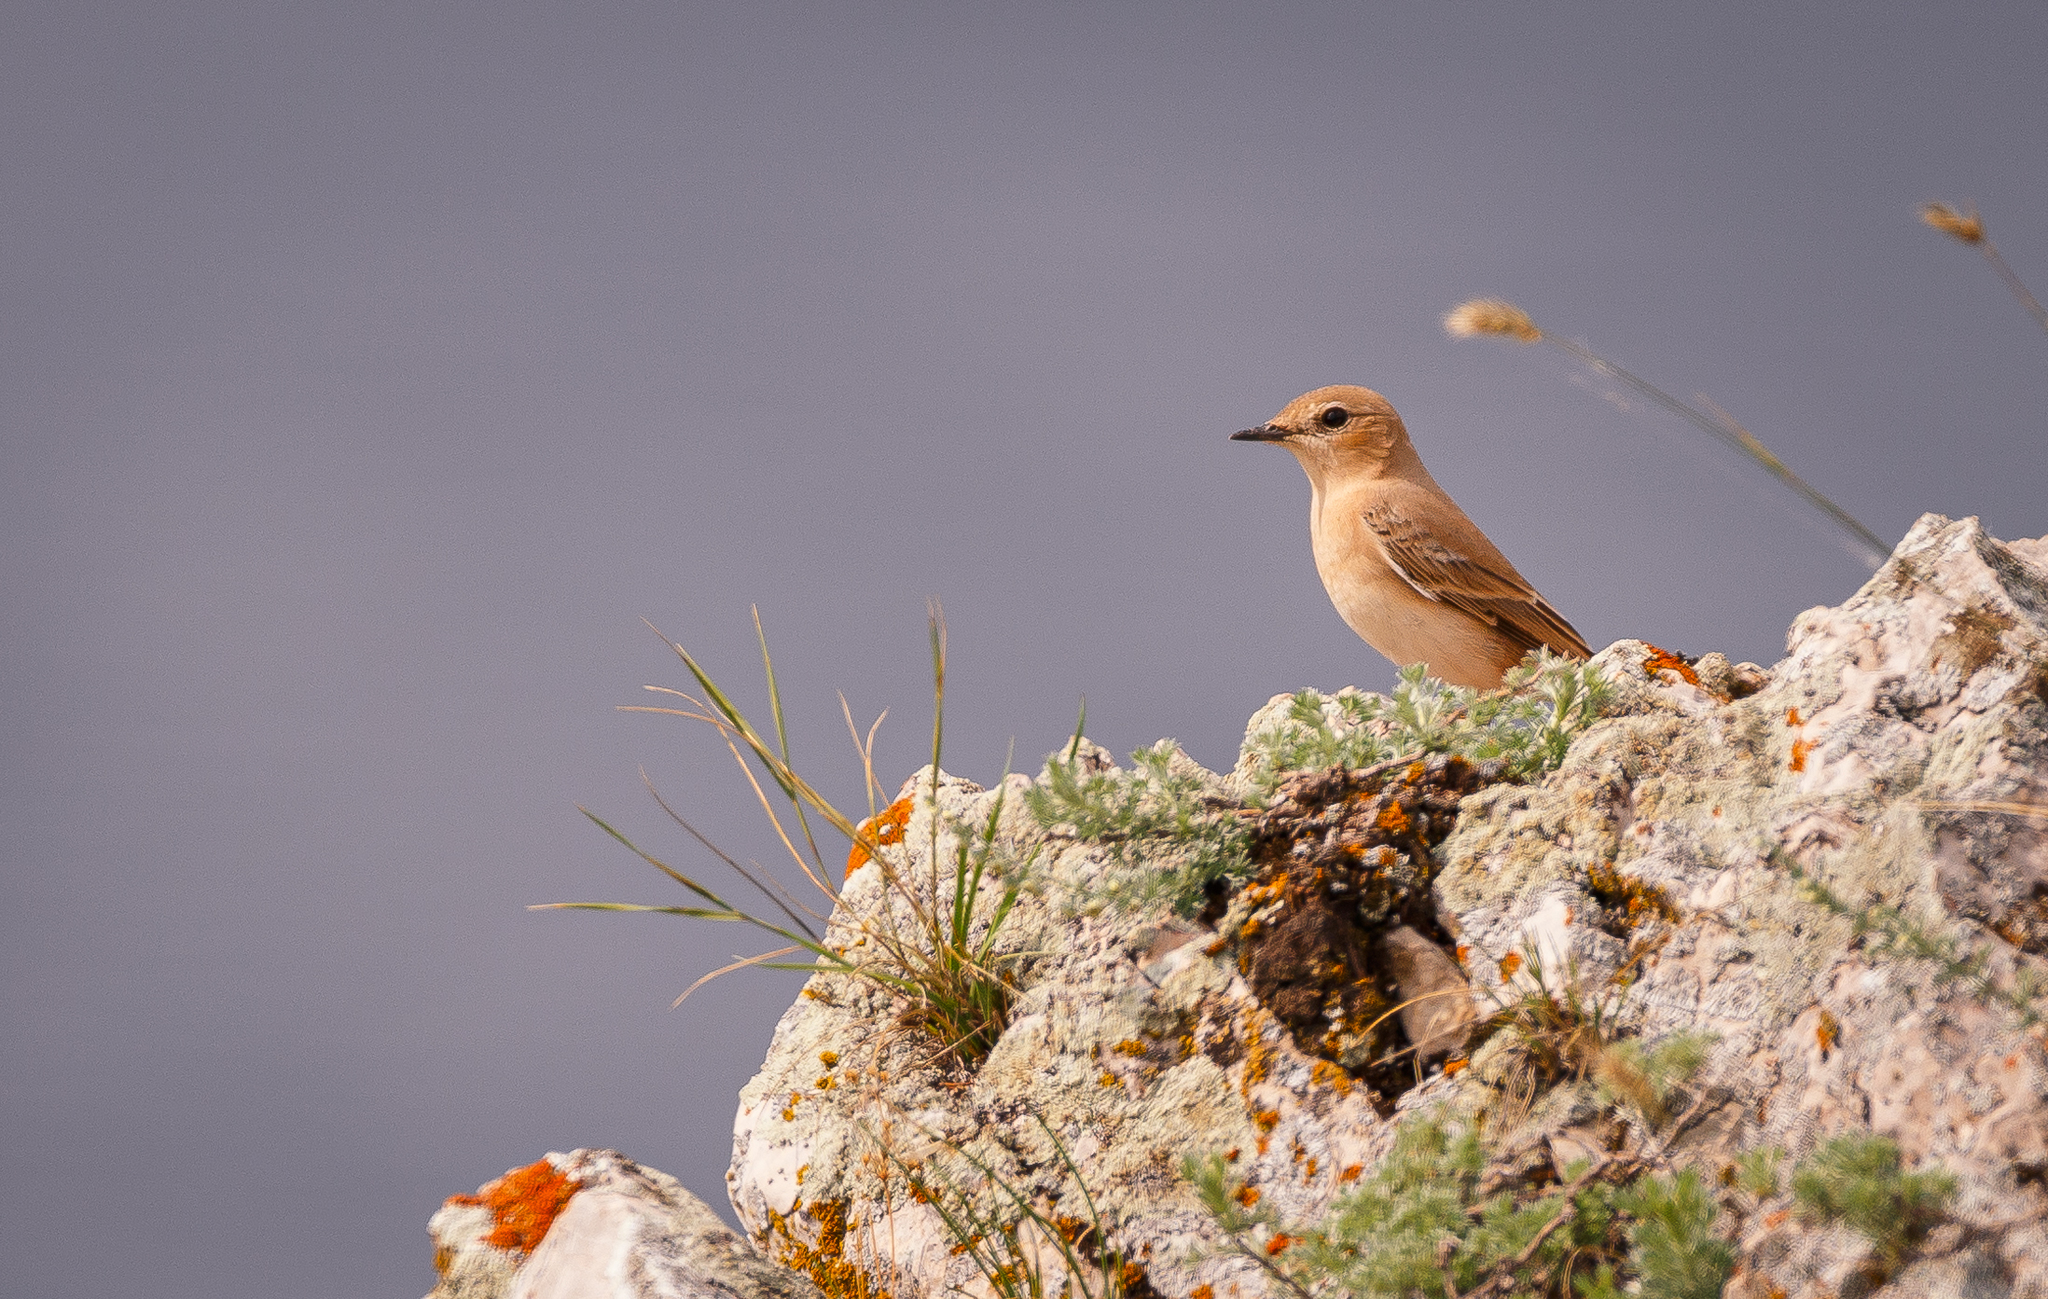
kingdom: Animalia
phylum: Chordata
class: Aves
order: Passeriformes
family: Muscicapidae
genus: Oenanthe
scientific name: Oenanthe oenanthe
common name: Northern wheatear
